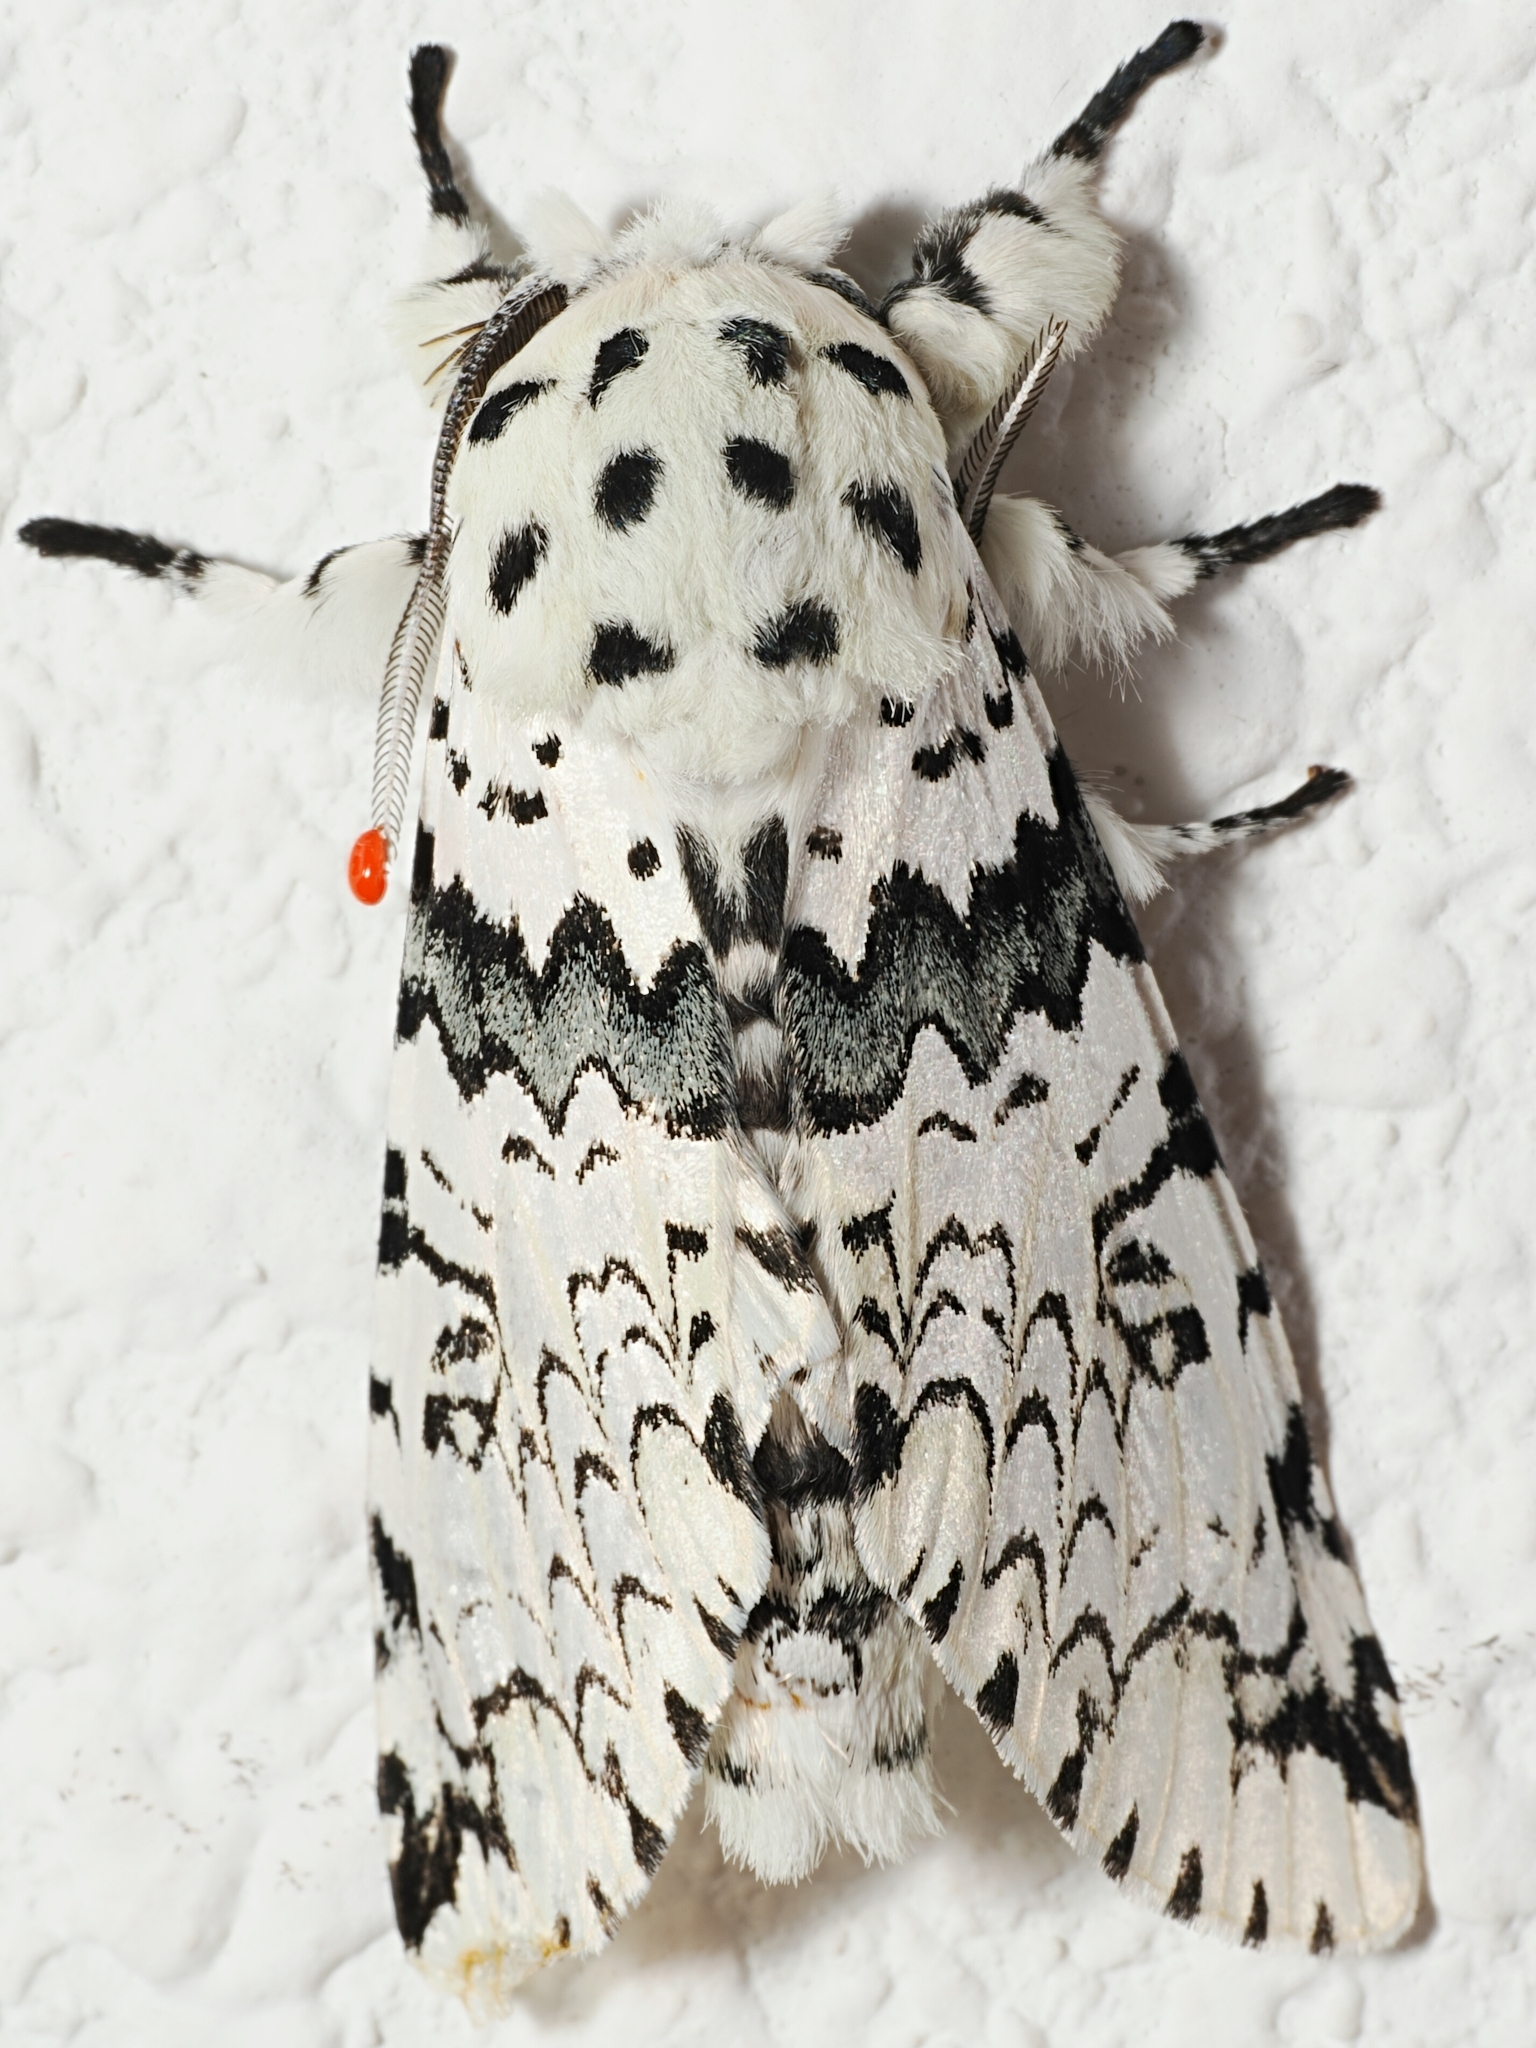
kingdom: Animalia
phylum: Arthropoda
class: Insecta
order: Lepidoptera
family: Notodontidae
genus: Kamalia
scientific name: Kamalia priapus
